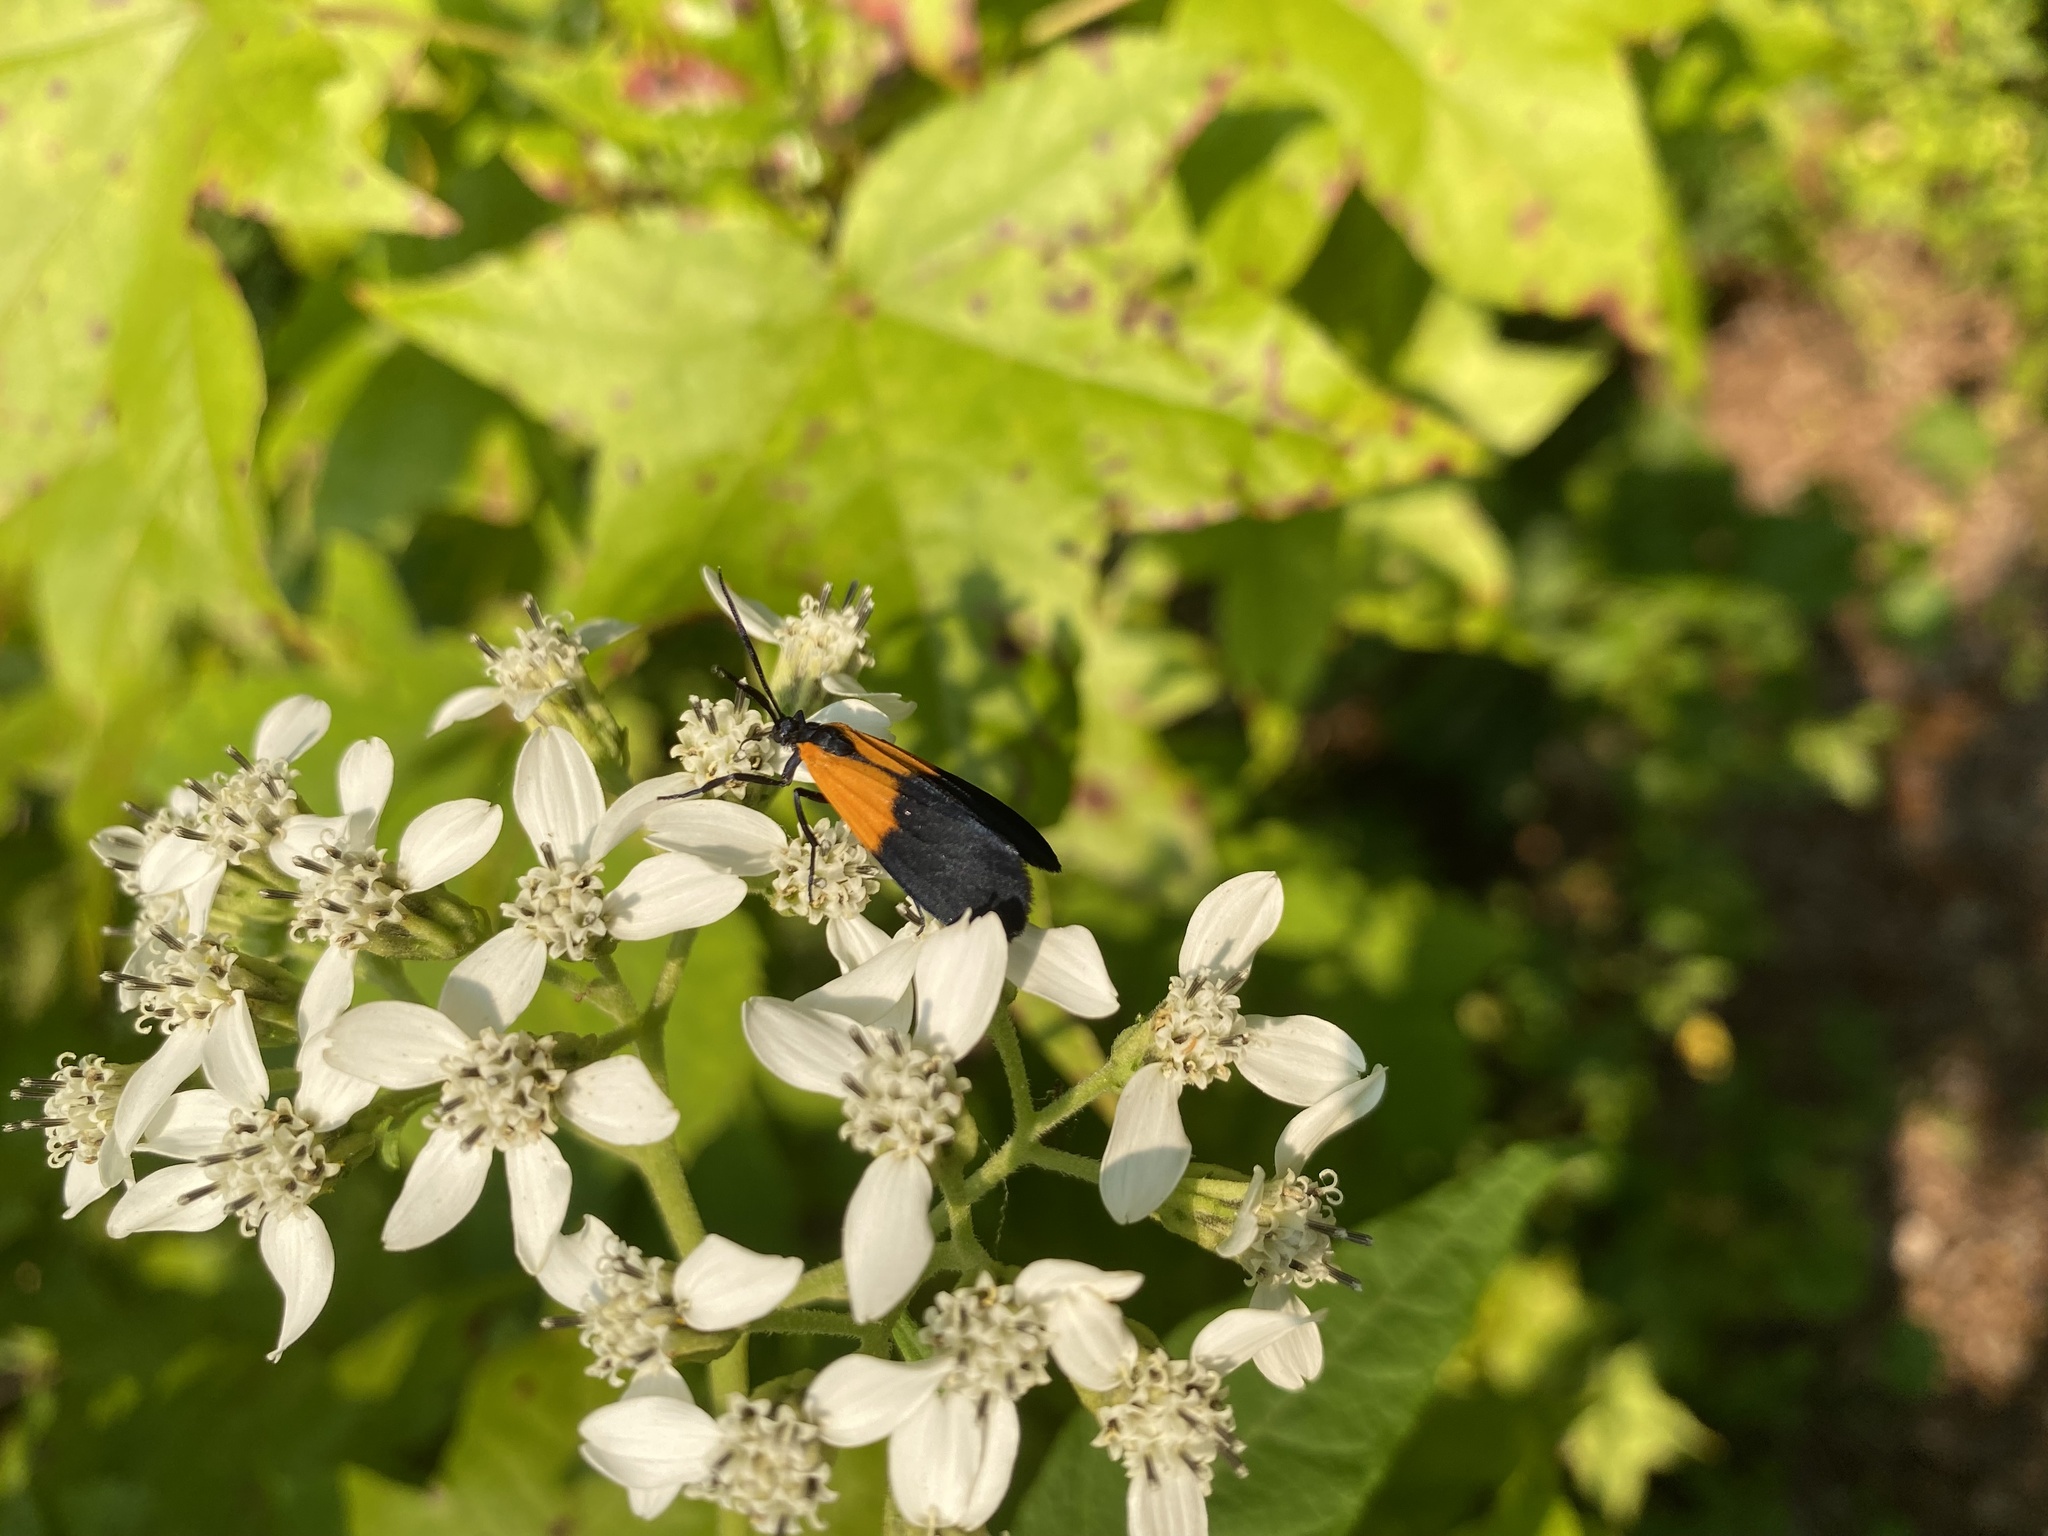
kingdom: Animalia
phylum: Arthropoda
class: Insecta
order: Lepidoptera
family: Erebidae
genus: Lycomorpha
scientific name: Lycomorpha pholus
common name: Black-and-yellow lichen moth
